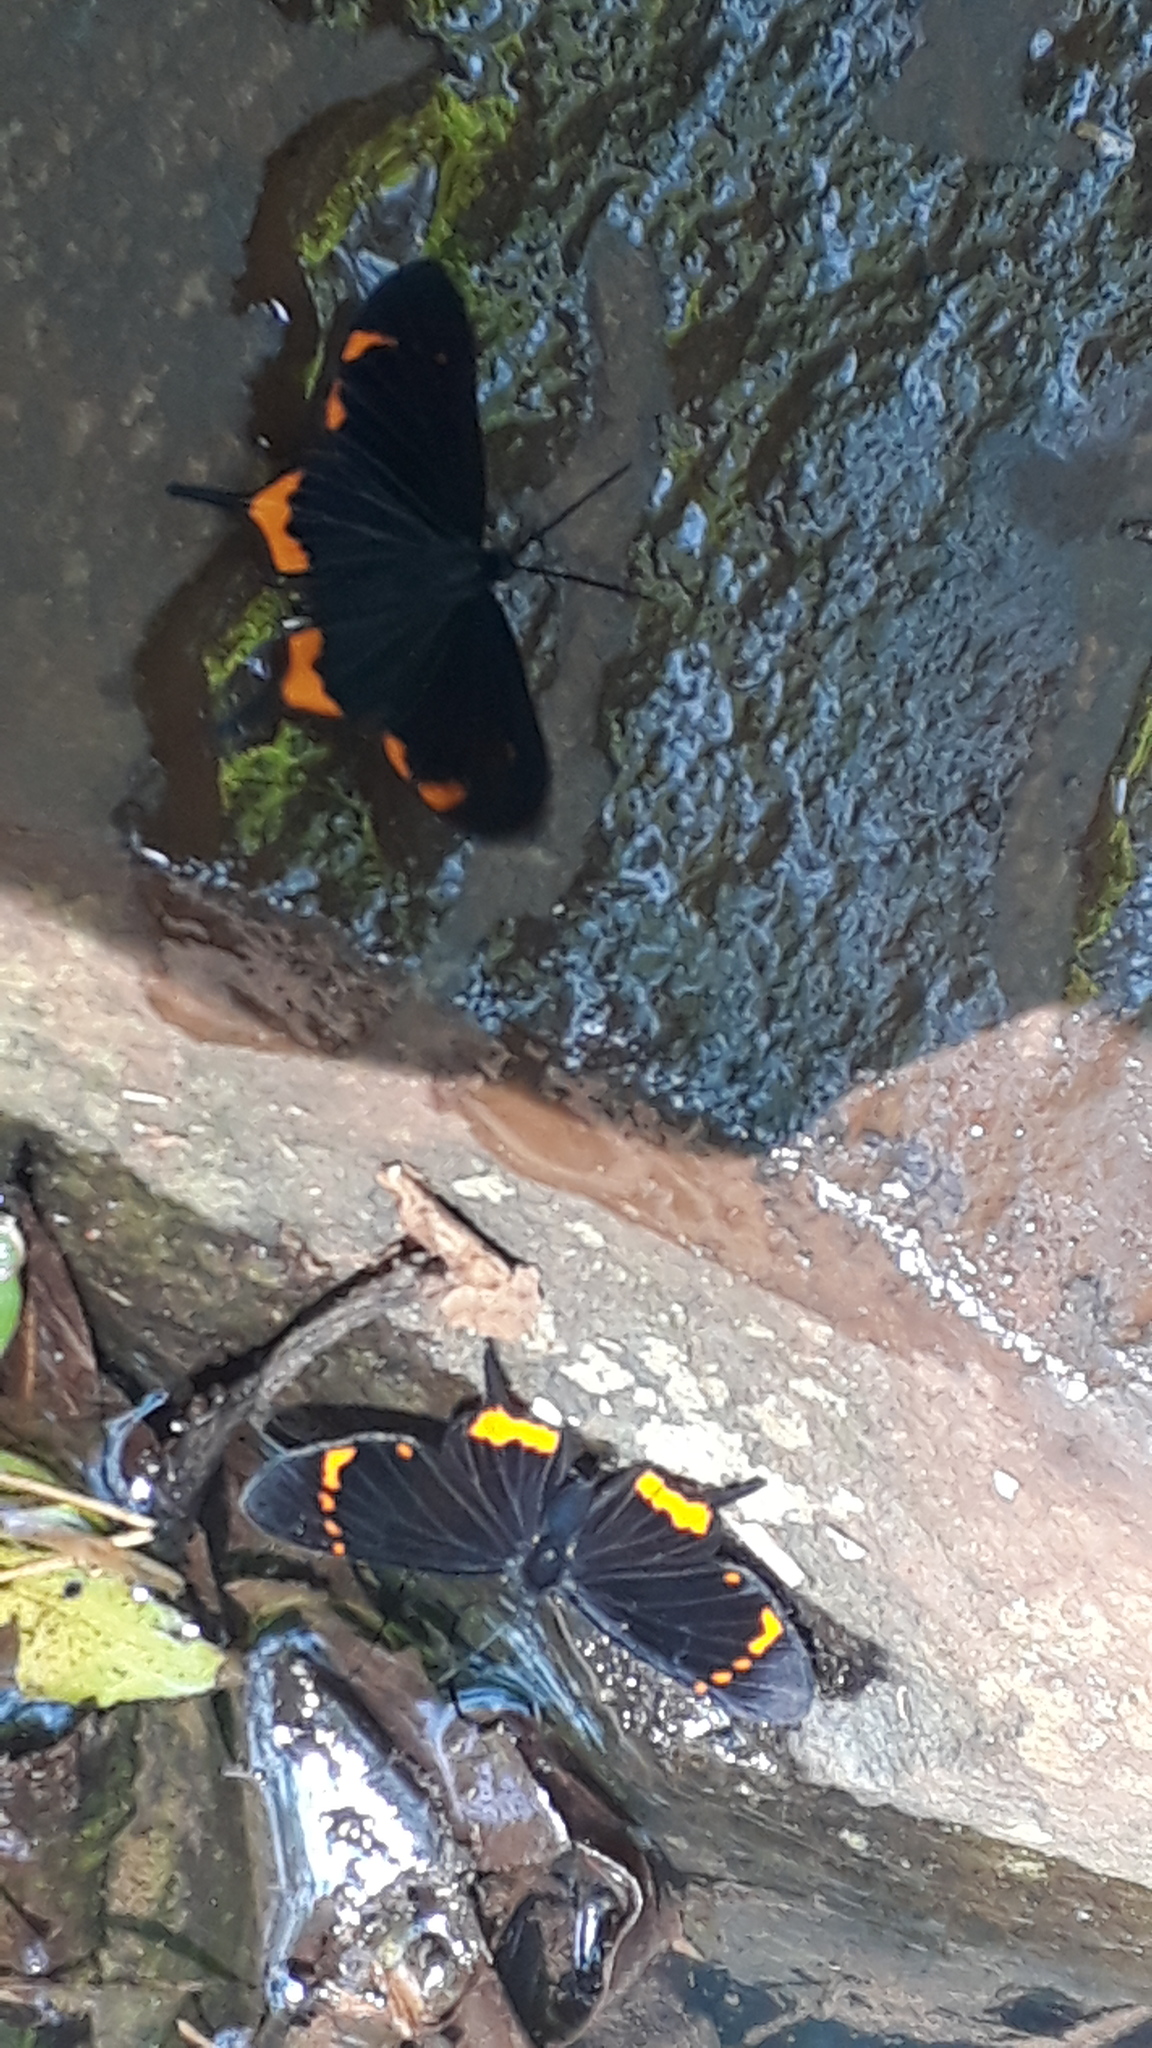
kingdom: Animalia
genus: Barbicornis
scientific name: Barbicornis basilis
